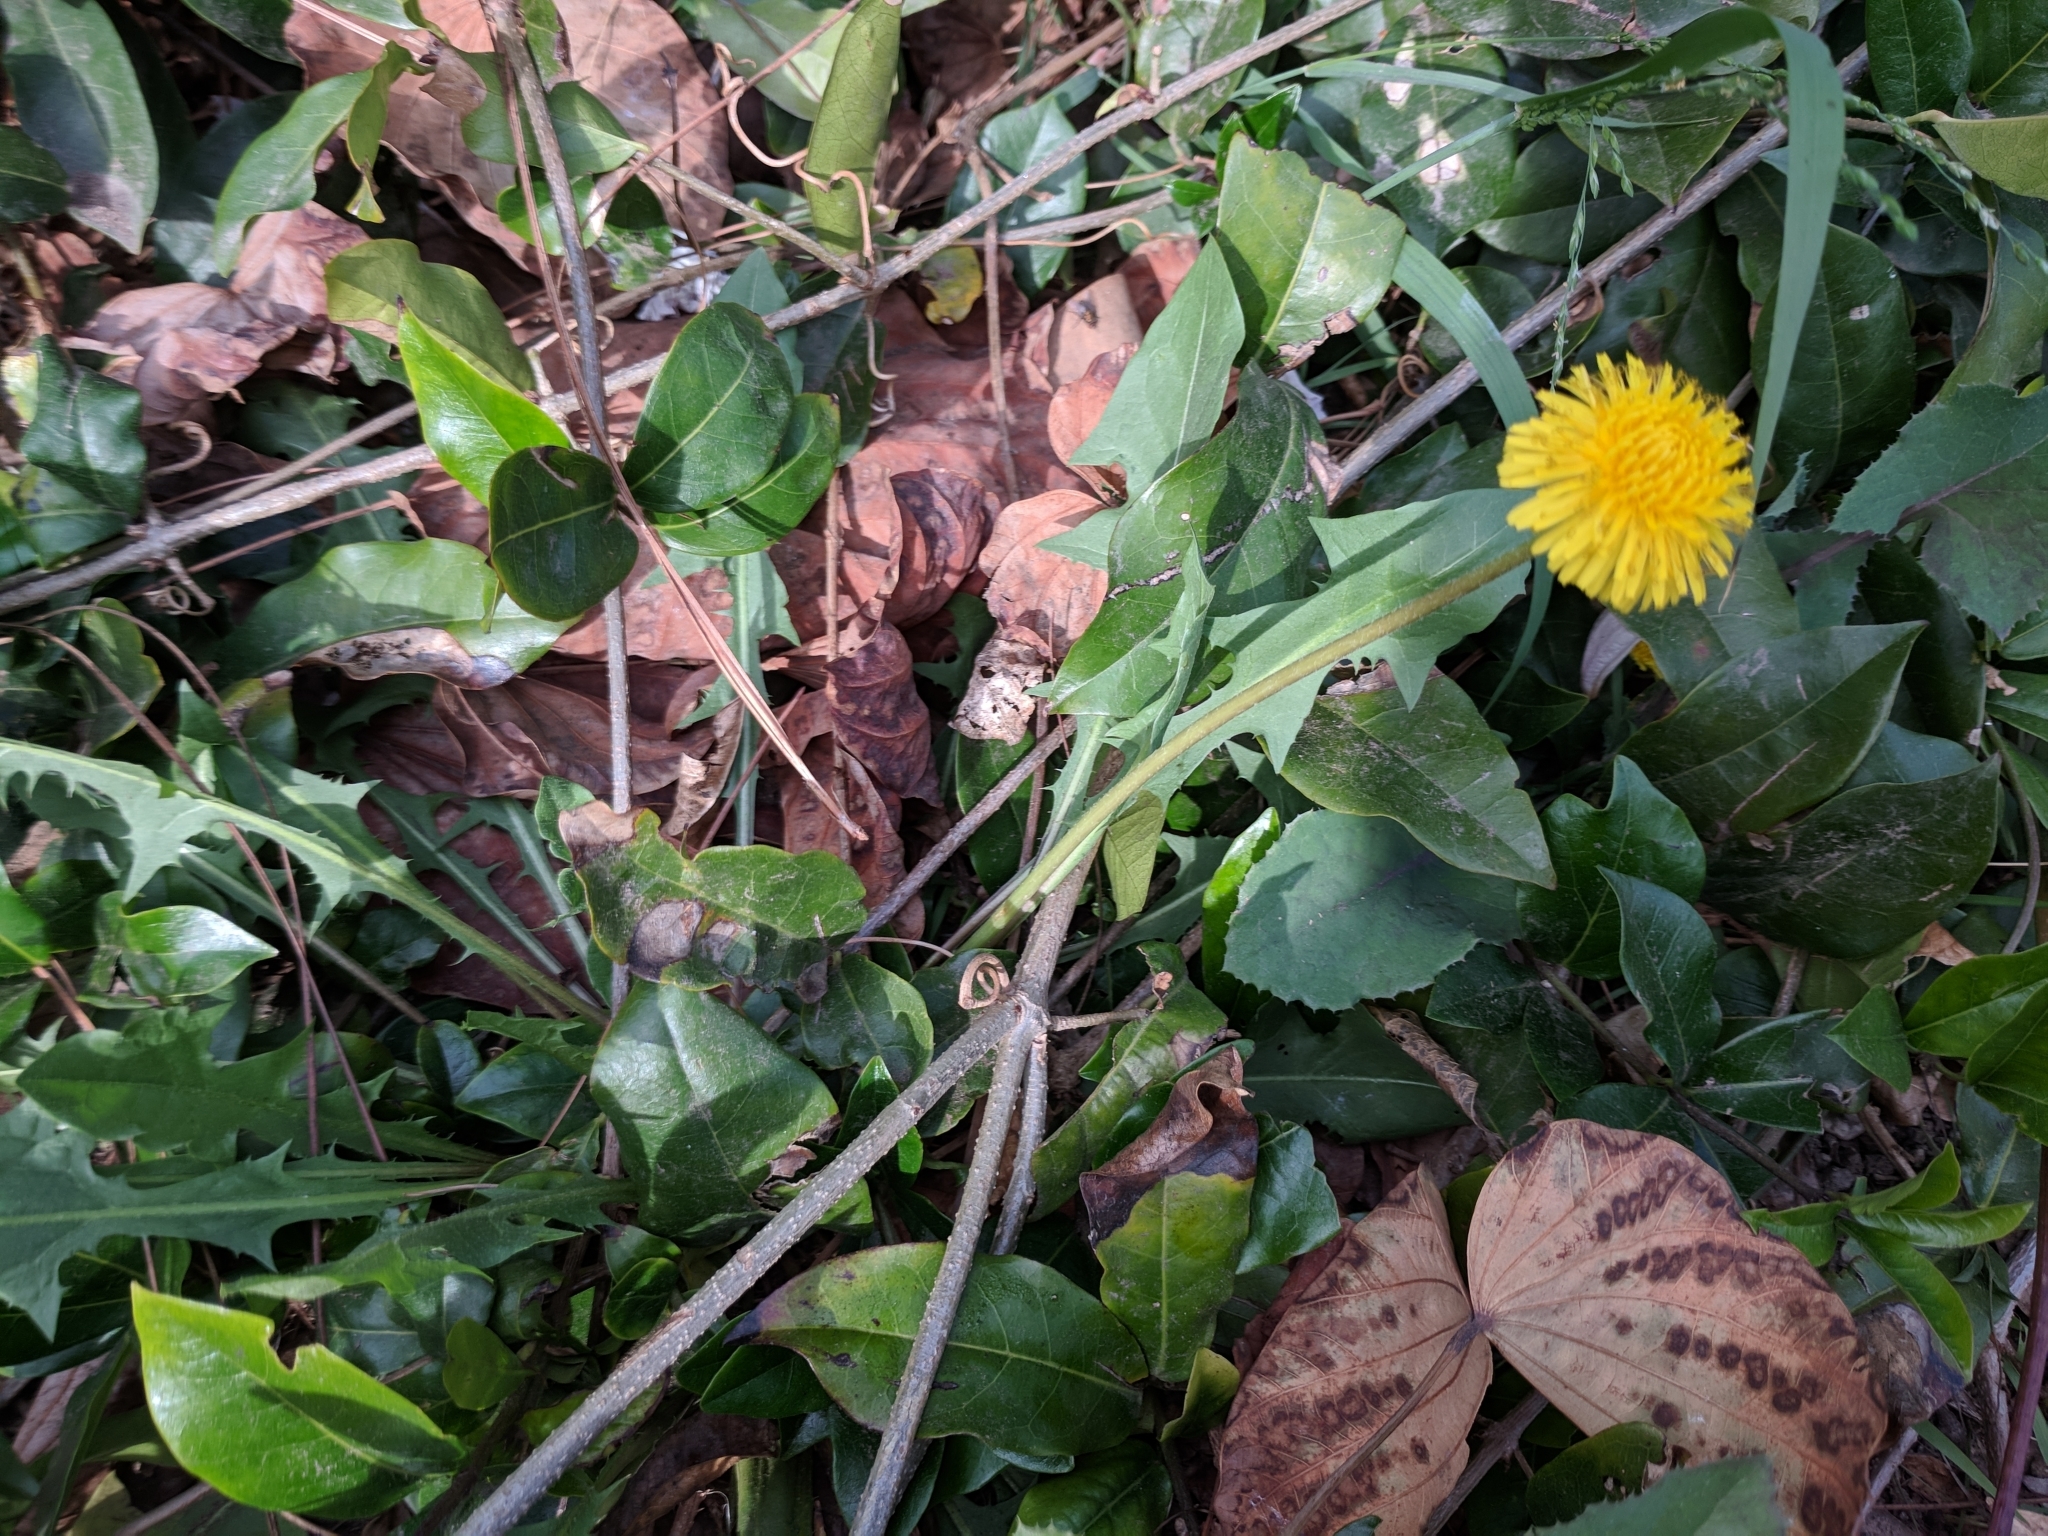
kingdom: Plantae
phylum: Tracheophyta
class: Magnoliopsida
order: Asterales
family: Asteraceae
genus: Taraxacum
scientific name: Taraxacum officinale
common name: Common dandelion
